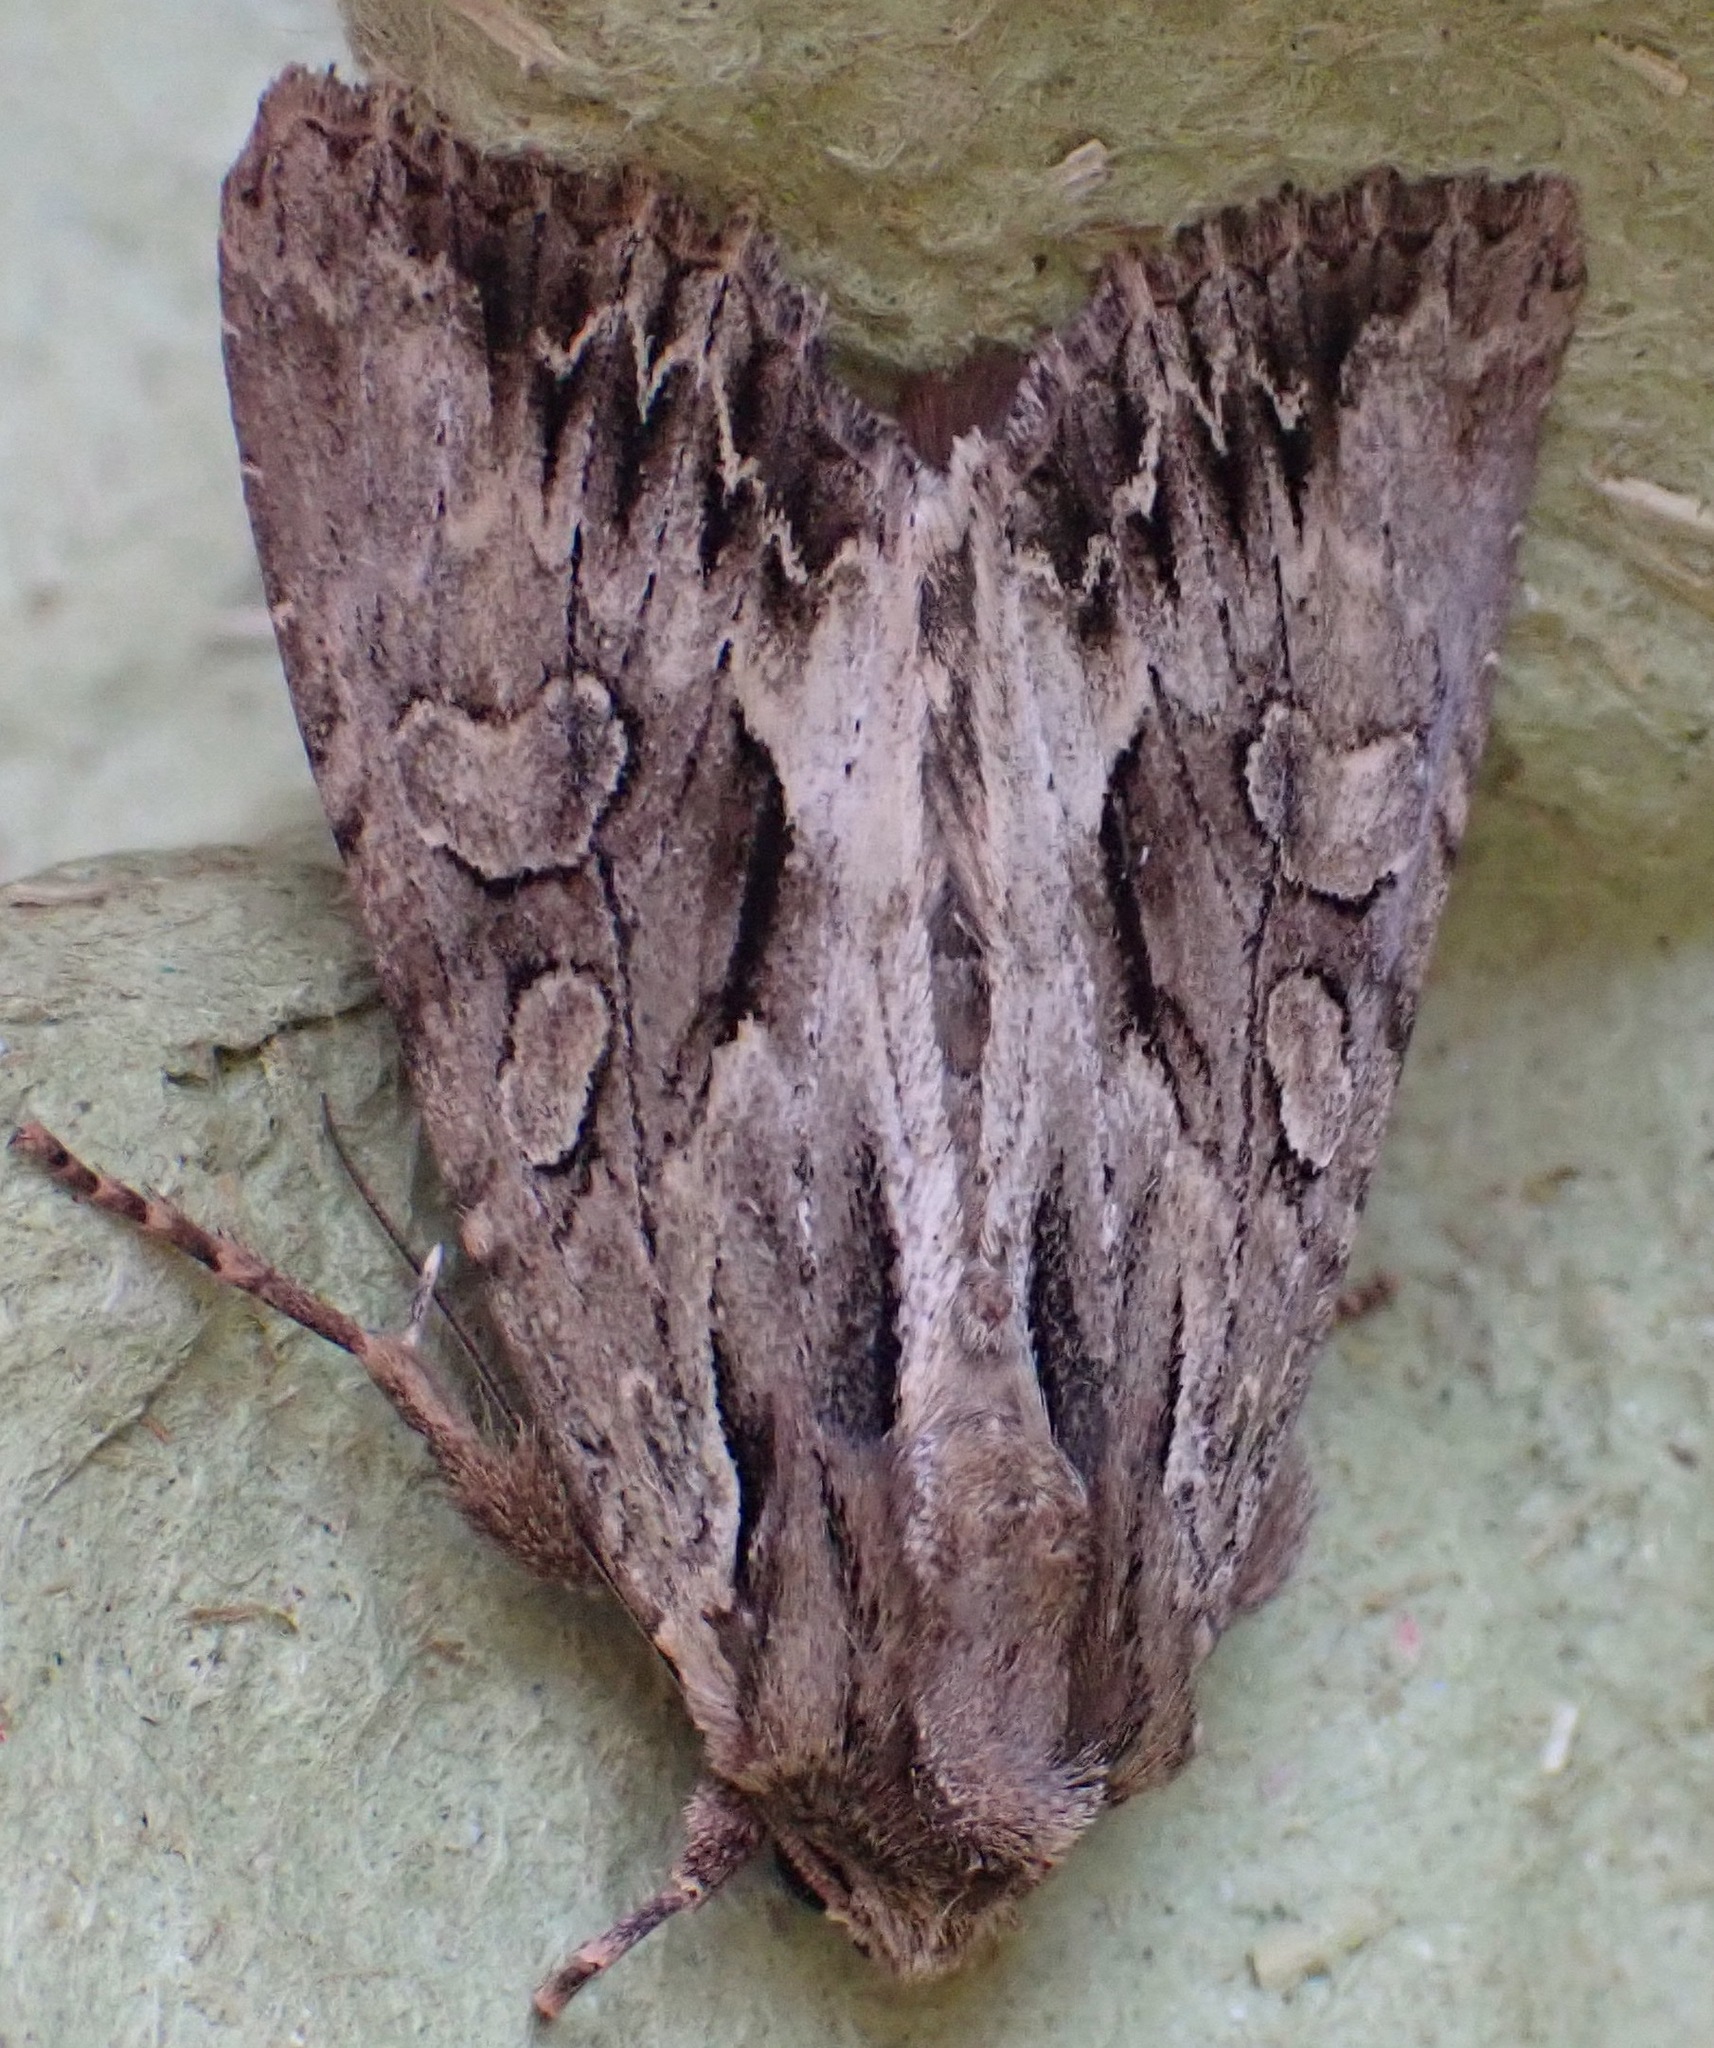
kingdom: Animalia
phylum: Arthropoda
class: Insecta
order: Lepidoptera
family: Noctuidae
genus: Apamea
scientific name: Apamea monoglypha
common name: Dark arches
